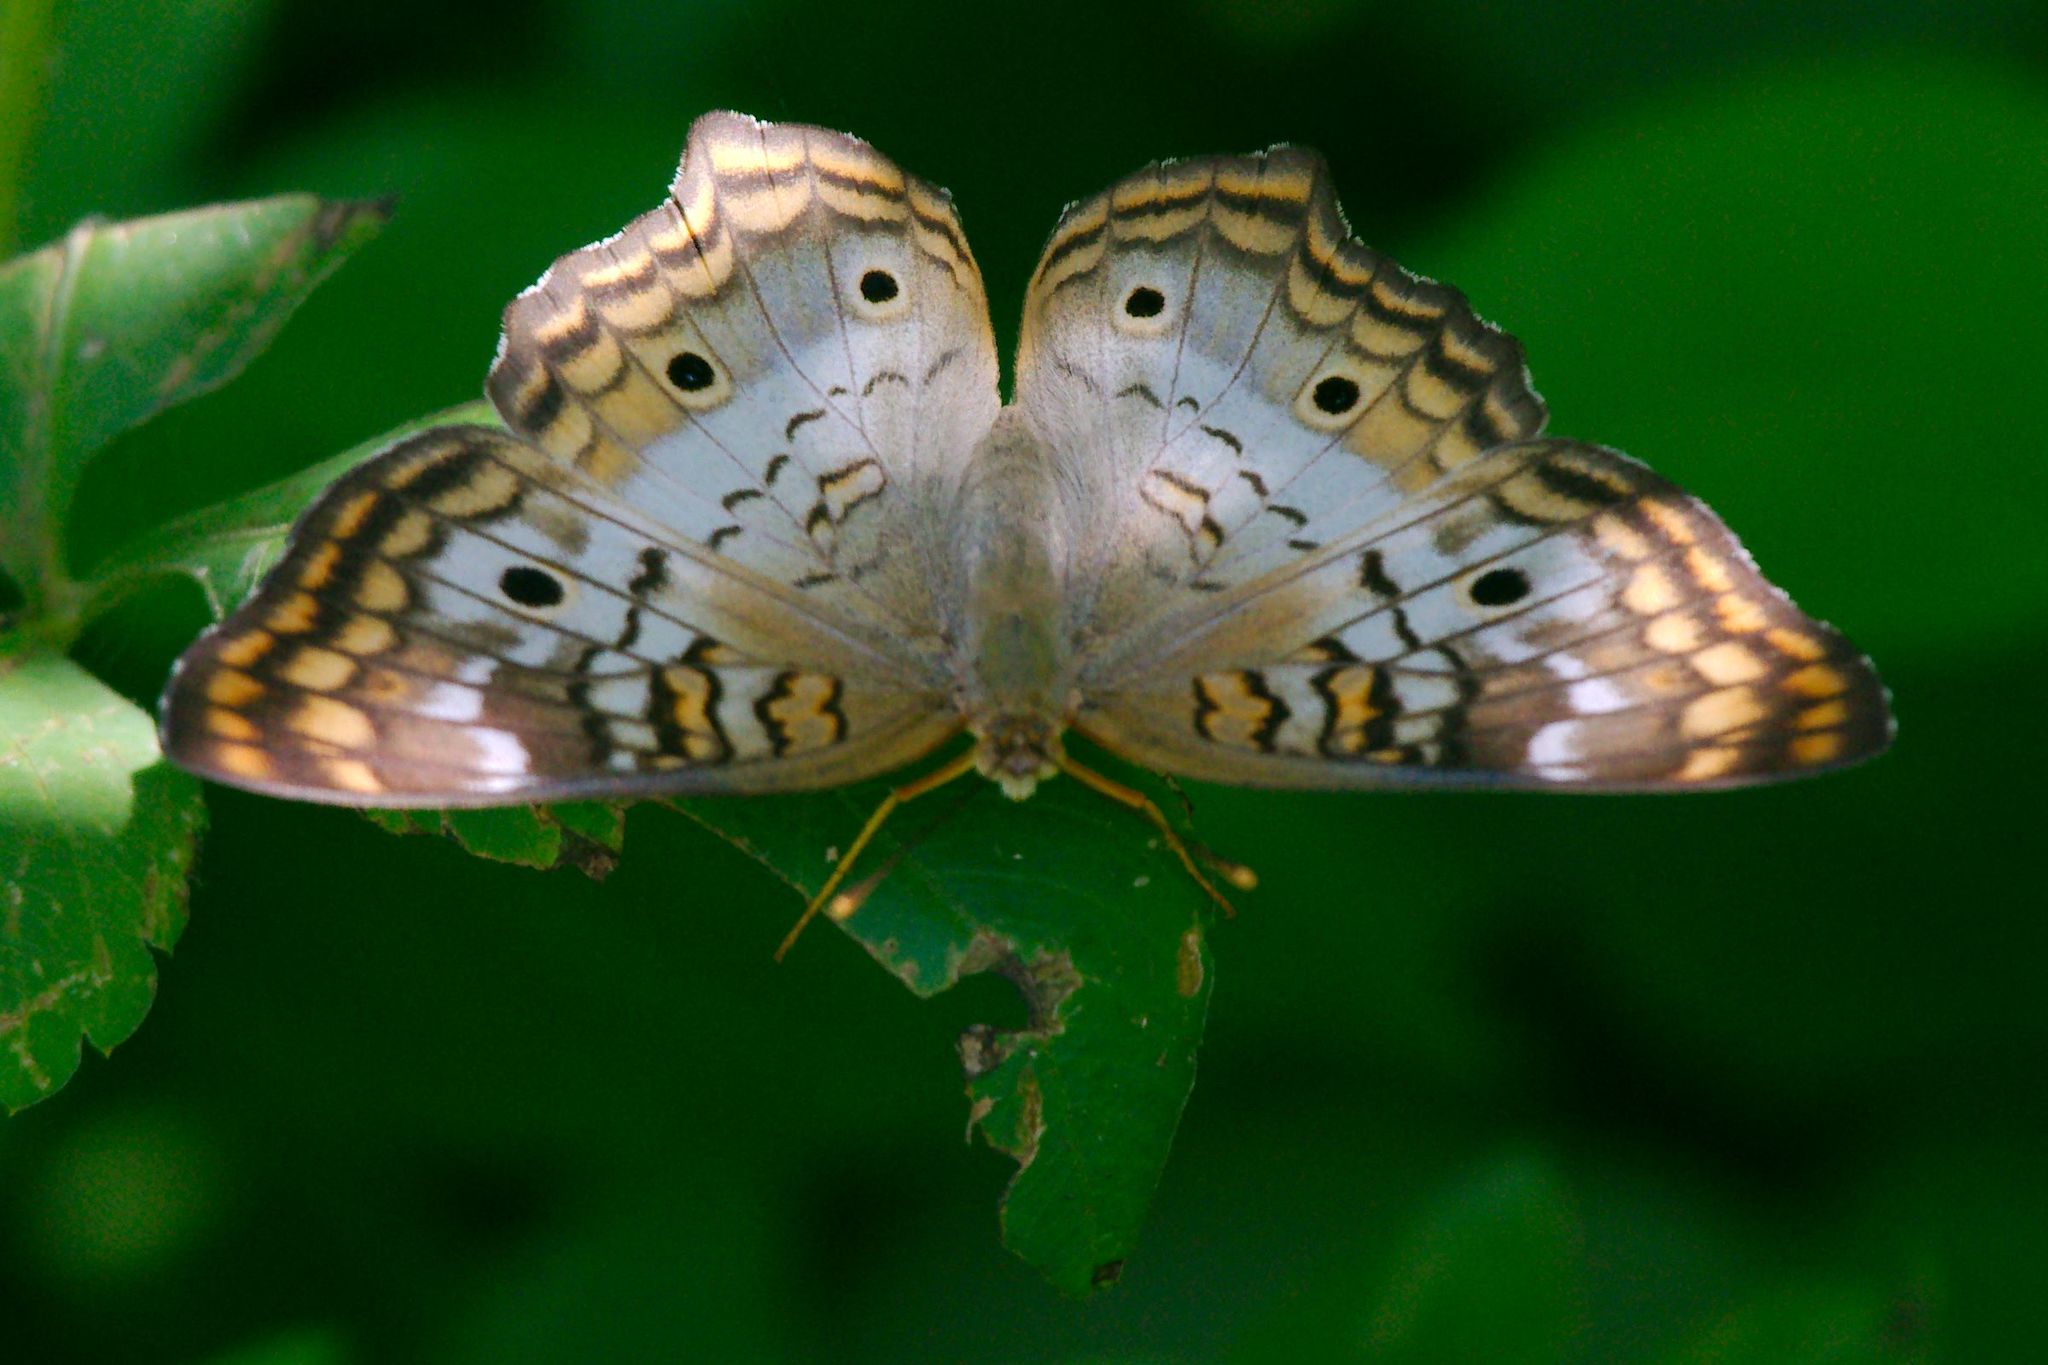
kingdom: Animalia
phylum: Arthropoda
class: Insecta
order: Lepidoptera
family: Nymphalidae
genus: Anartia
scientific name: Anartia jatrophae
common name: White peacock
